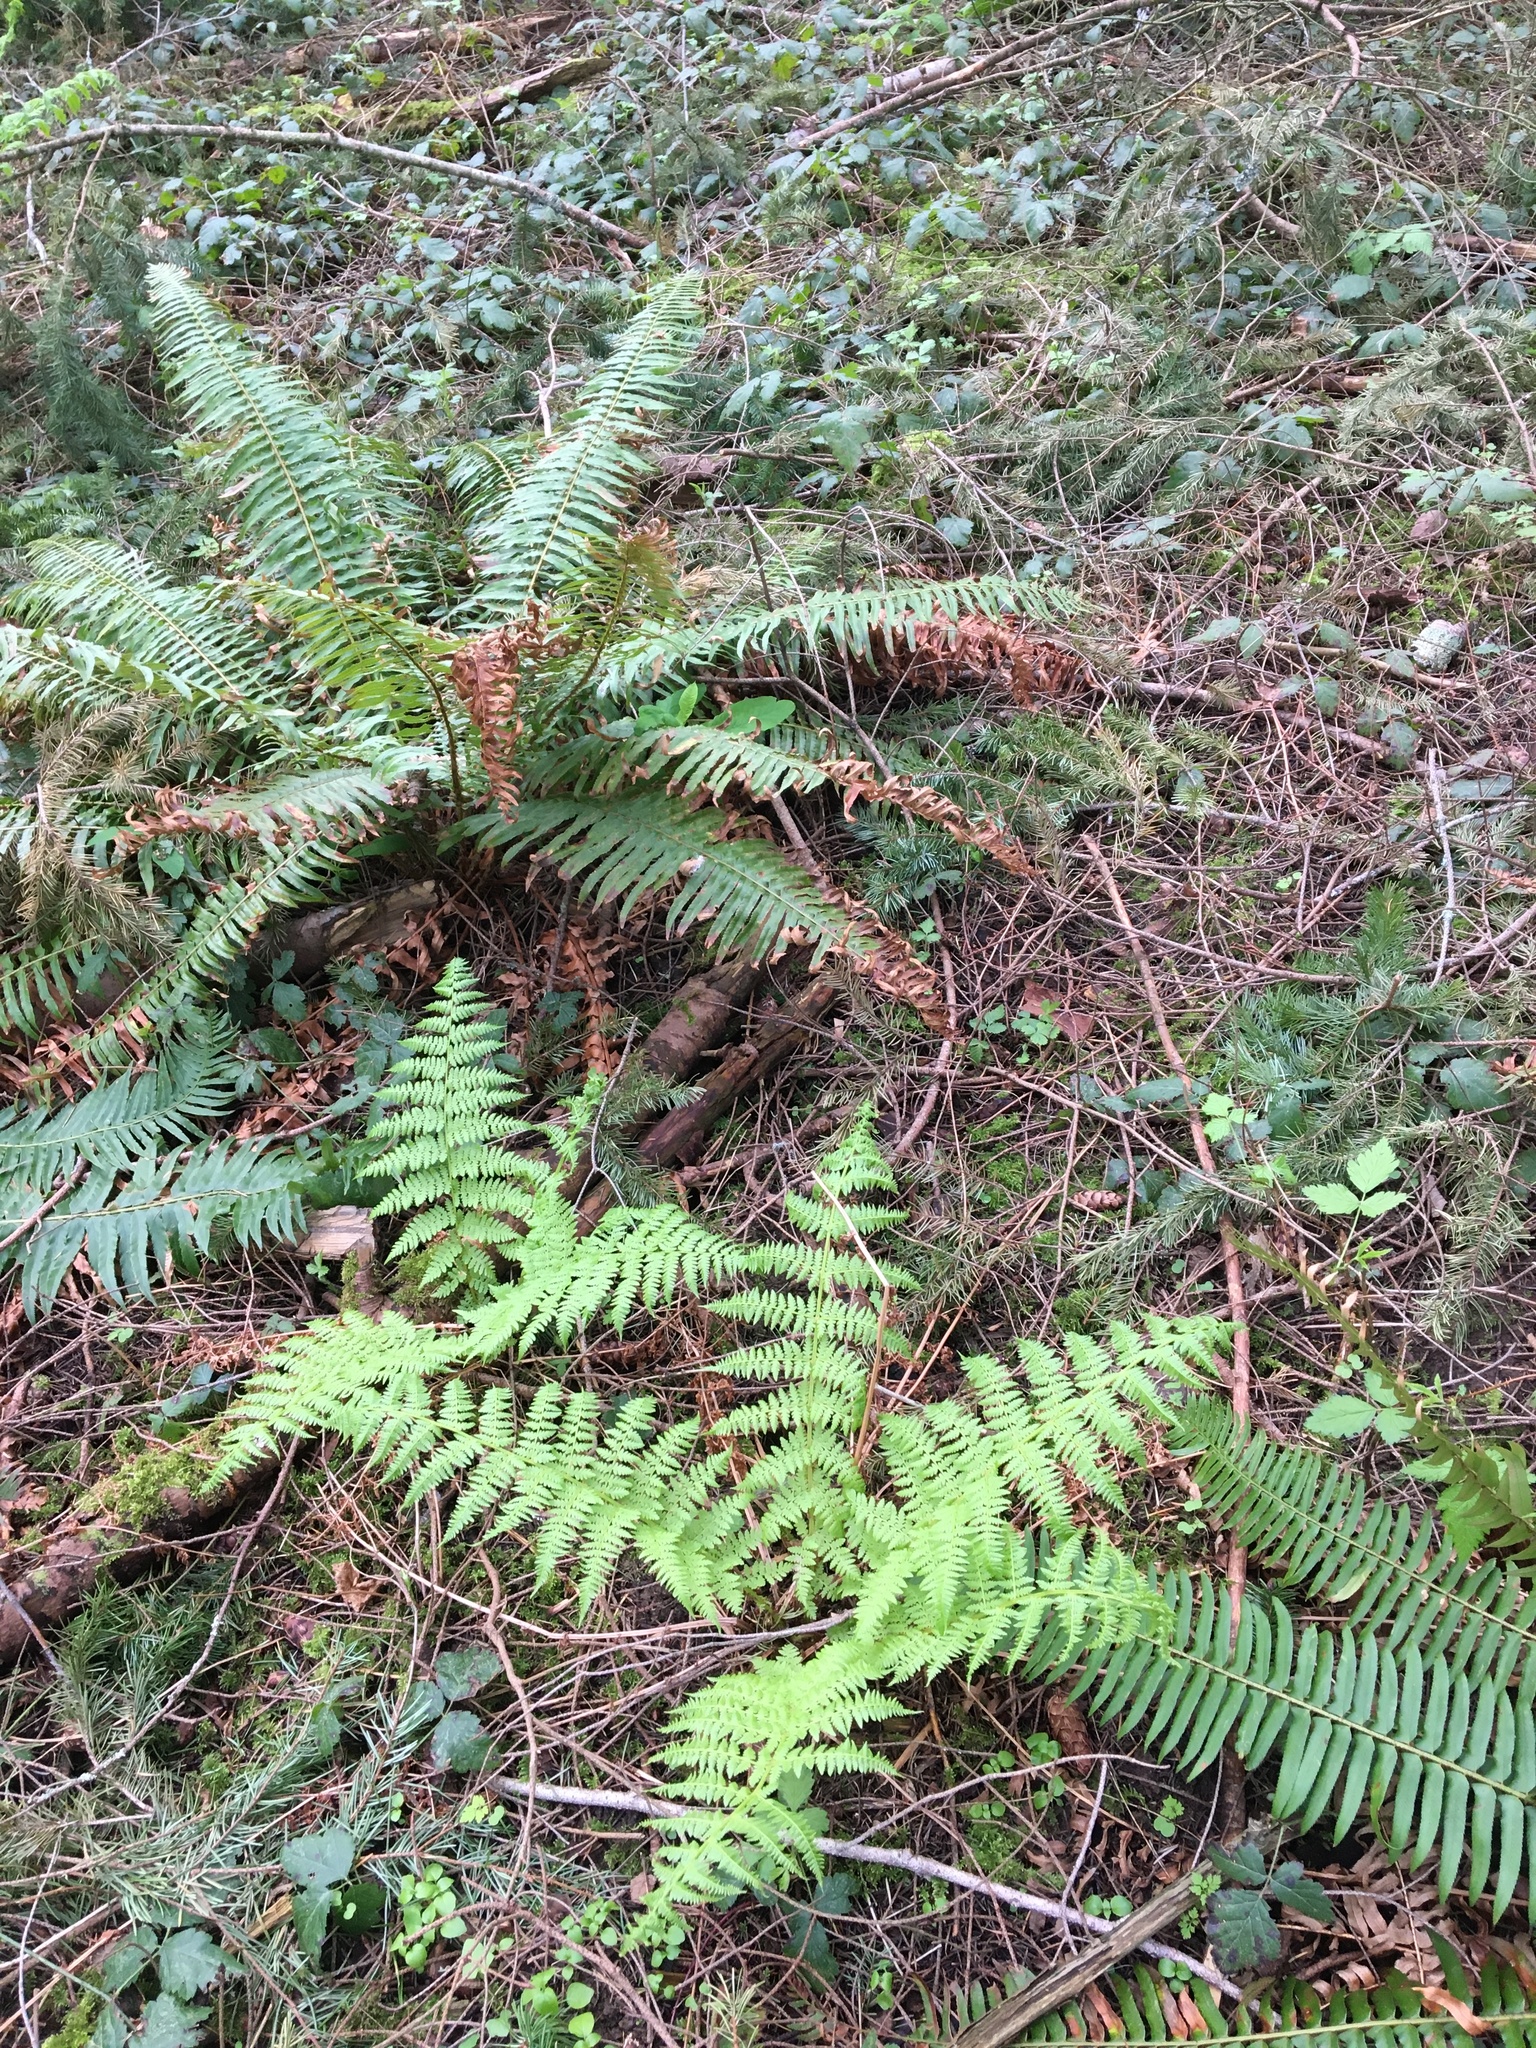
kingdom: Plantae
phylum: Tracheophyta
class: Polypodiopsida
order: Polypodiales
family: Athyriaceae
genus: Athyrium
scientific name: Athyrium filix-femina
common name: Lady fern
